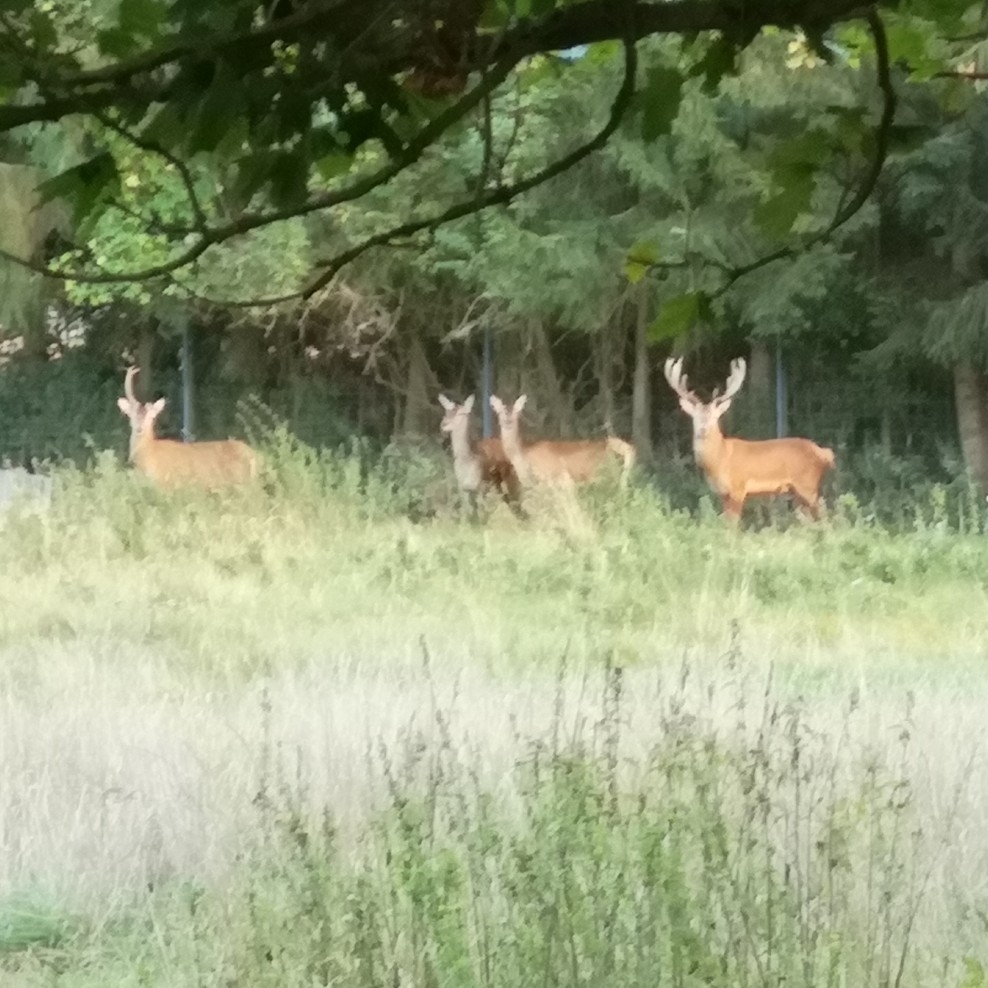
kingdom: Animalia
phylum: Chordata
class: Mammalia
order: Artiodactyla
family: Cervidae
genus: Cervus
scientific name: Cervus elaphus
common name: Red deer
